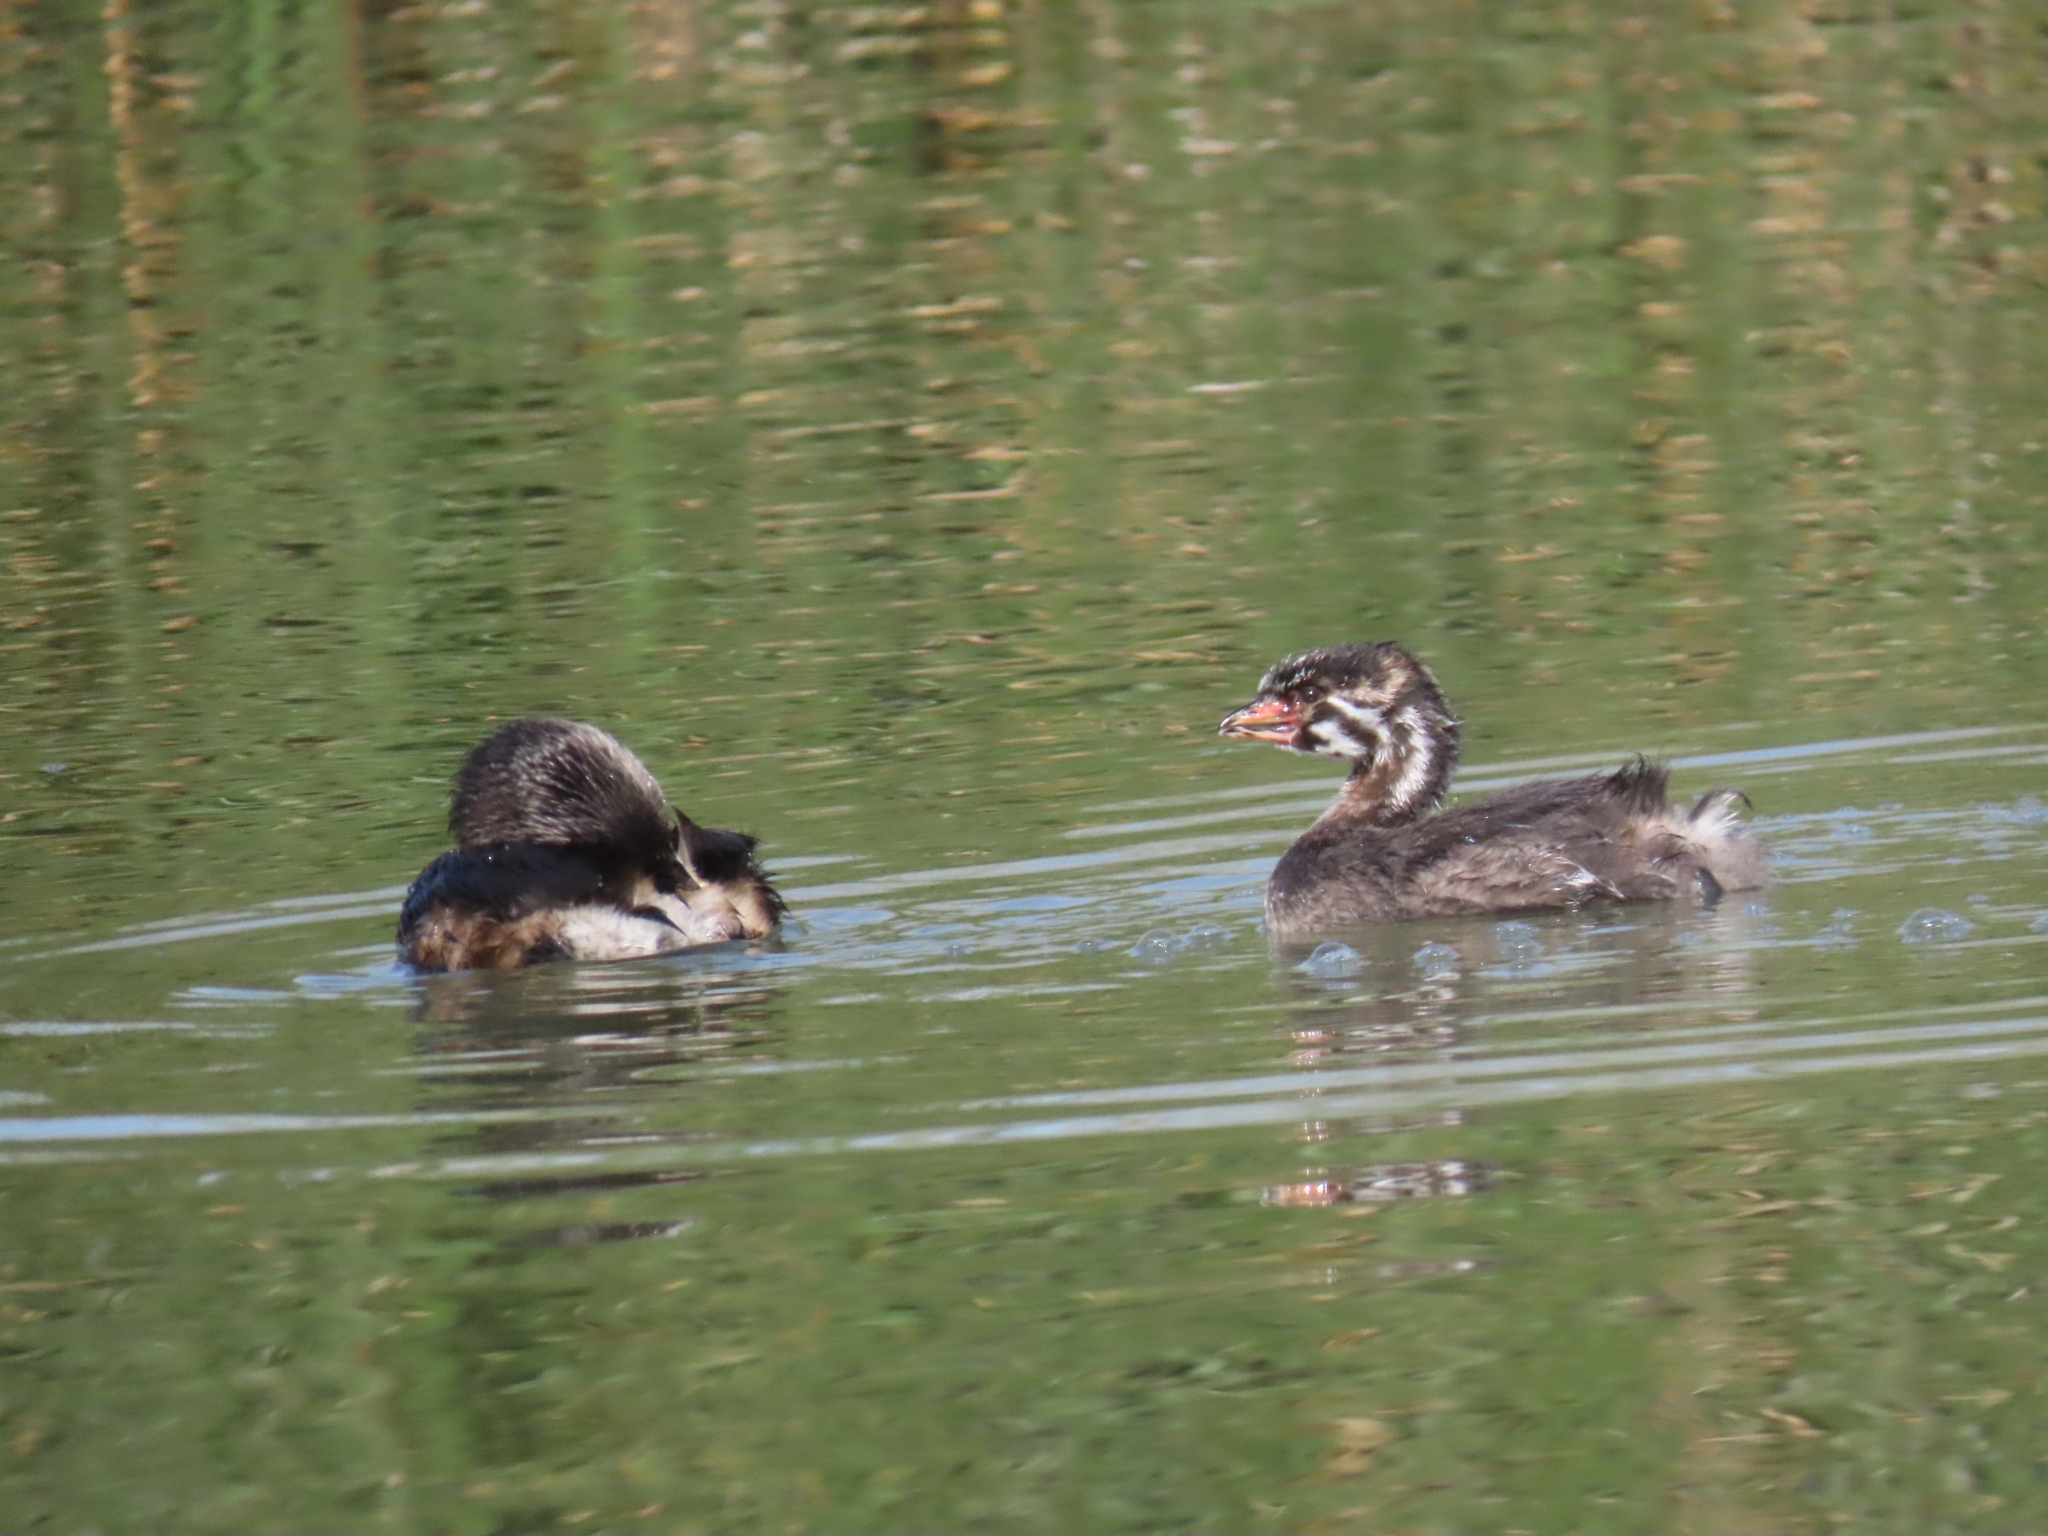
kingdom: Animalia
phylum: Chordata
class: Aves
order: Podicipediformes
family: Podicipedidae
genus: Podilymbus
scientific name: Podilymbus podiceps
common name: Pied-billed grebe
